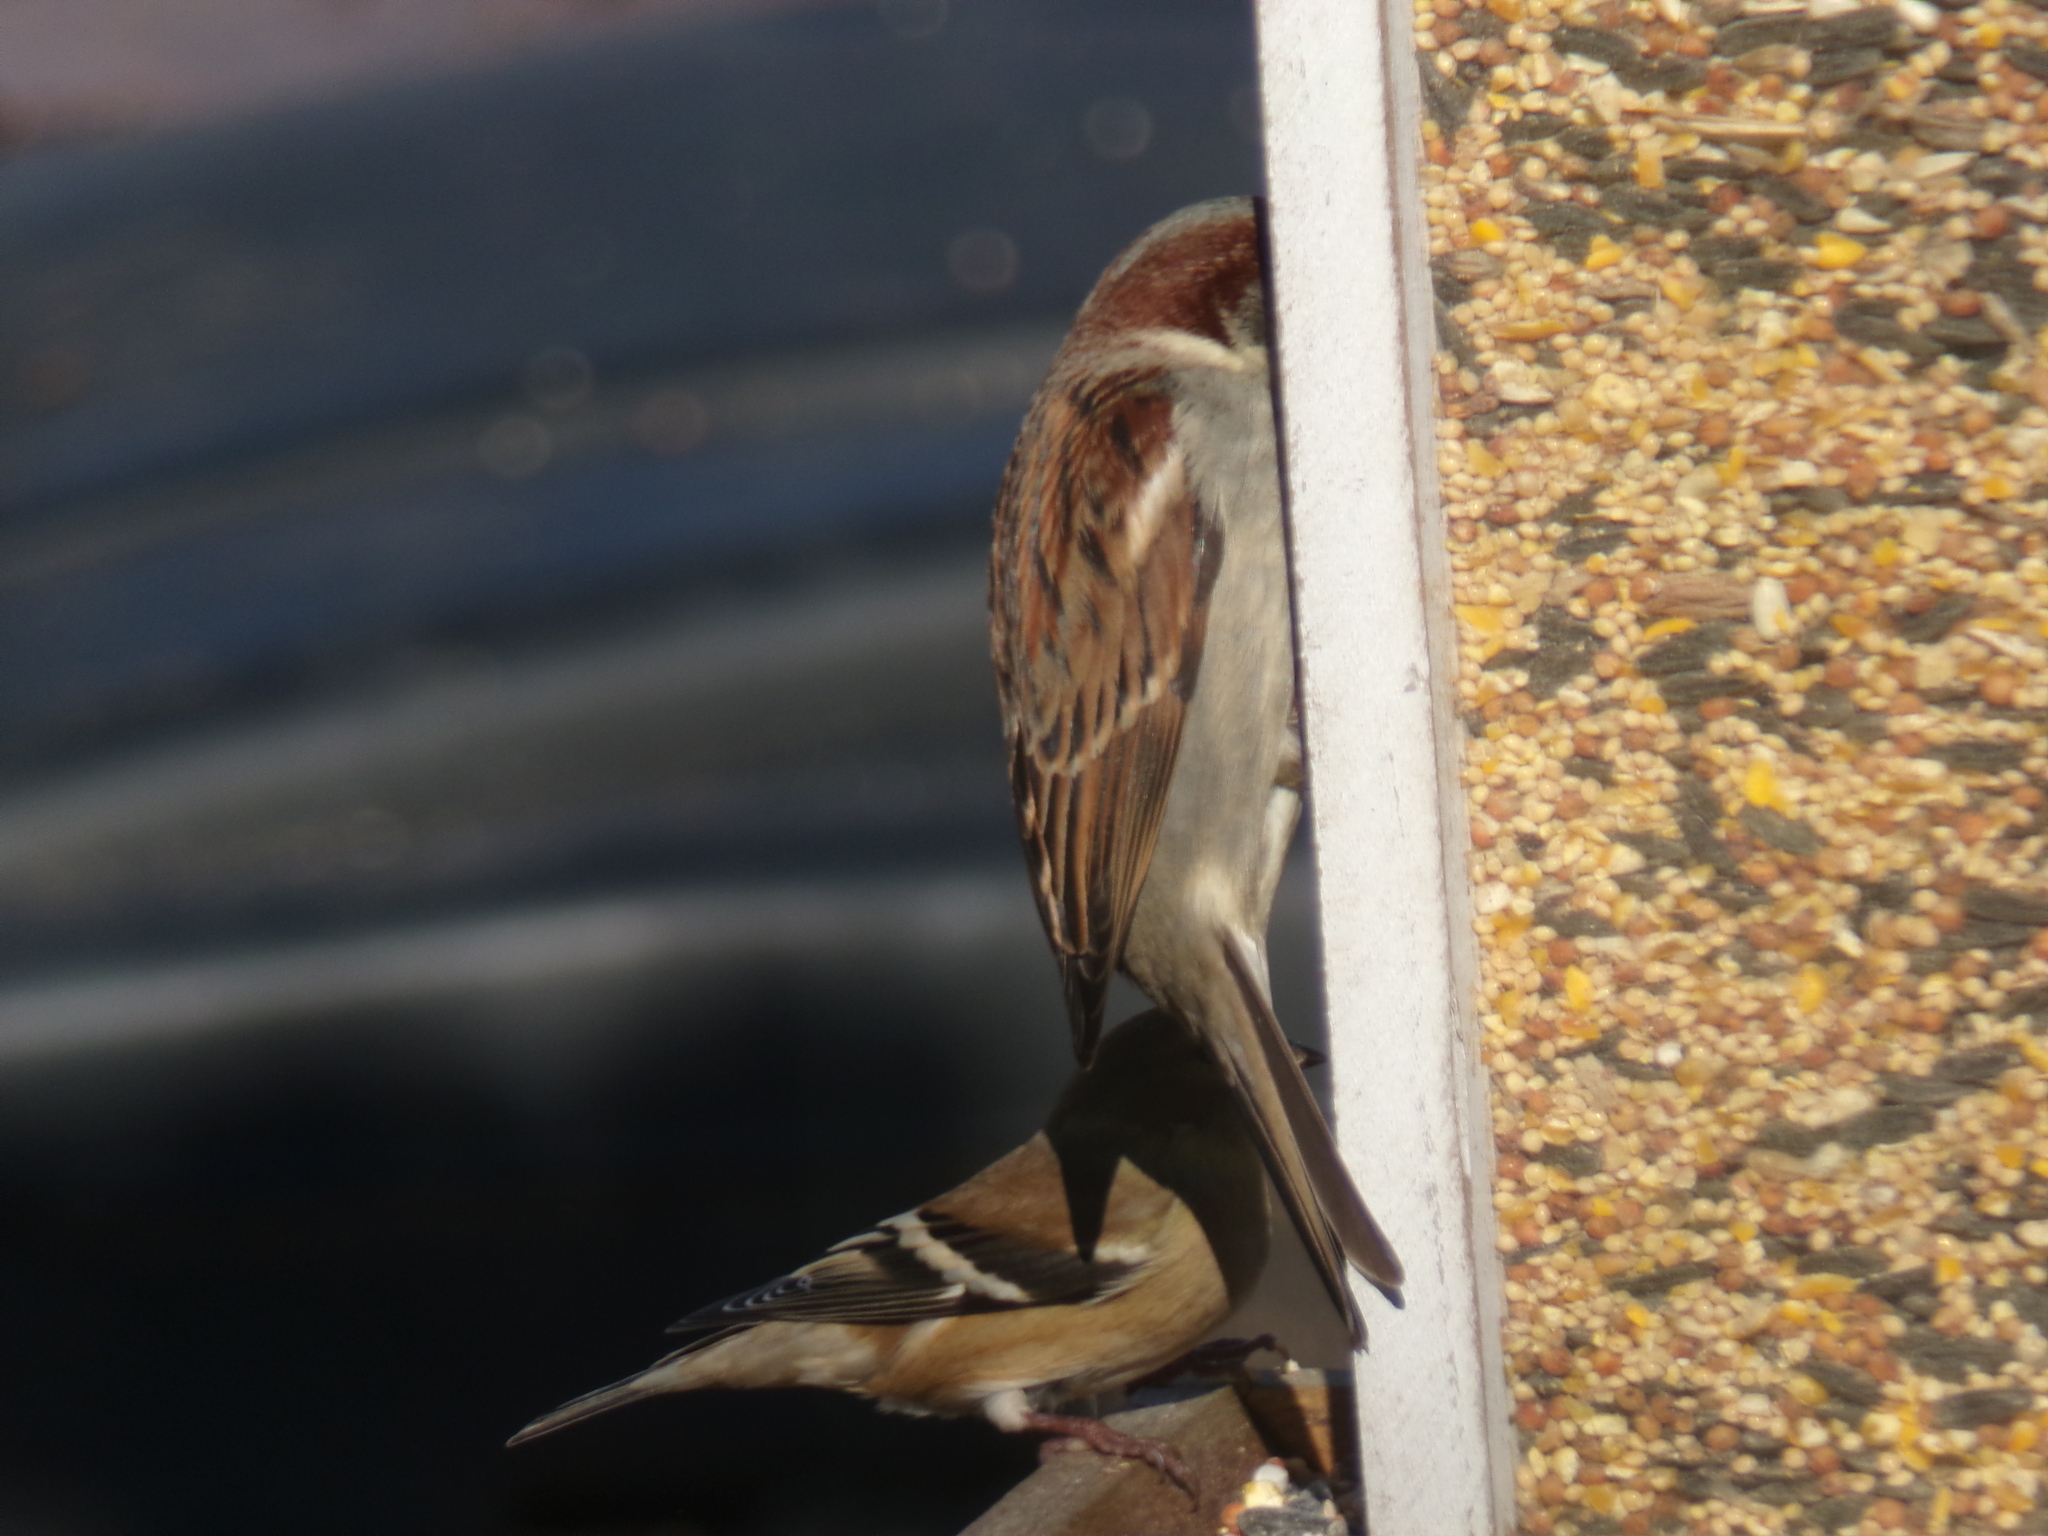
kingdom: Animalia
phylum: Chordata
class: Aves
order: Passeriformes
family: Fringillidae
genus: Spinus
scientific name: Spinus tristis
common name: American goldfinch
